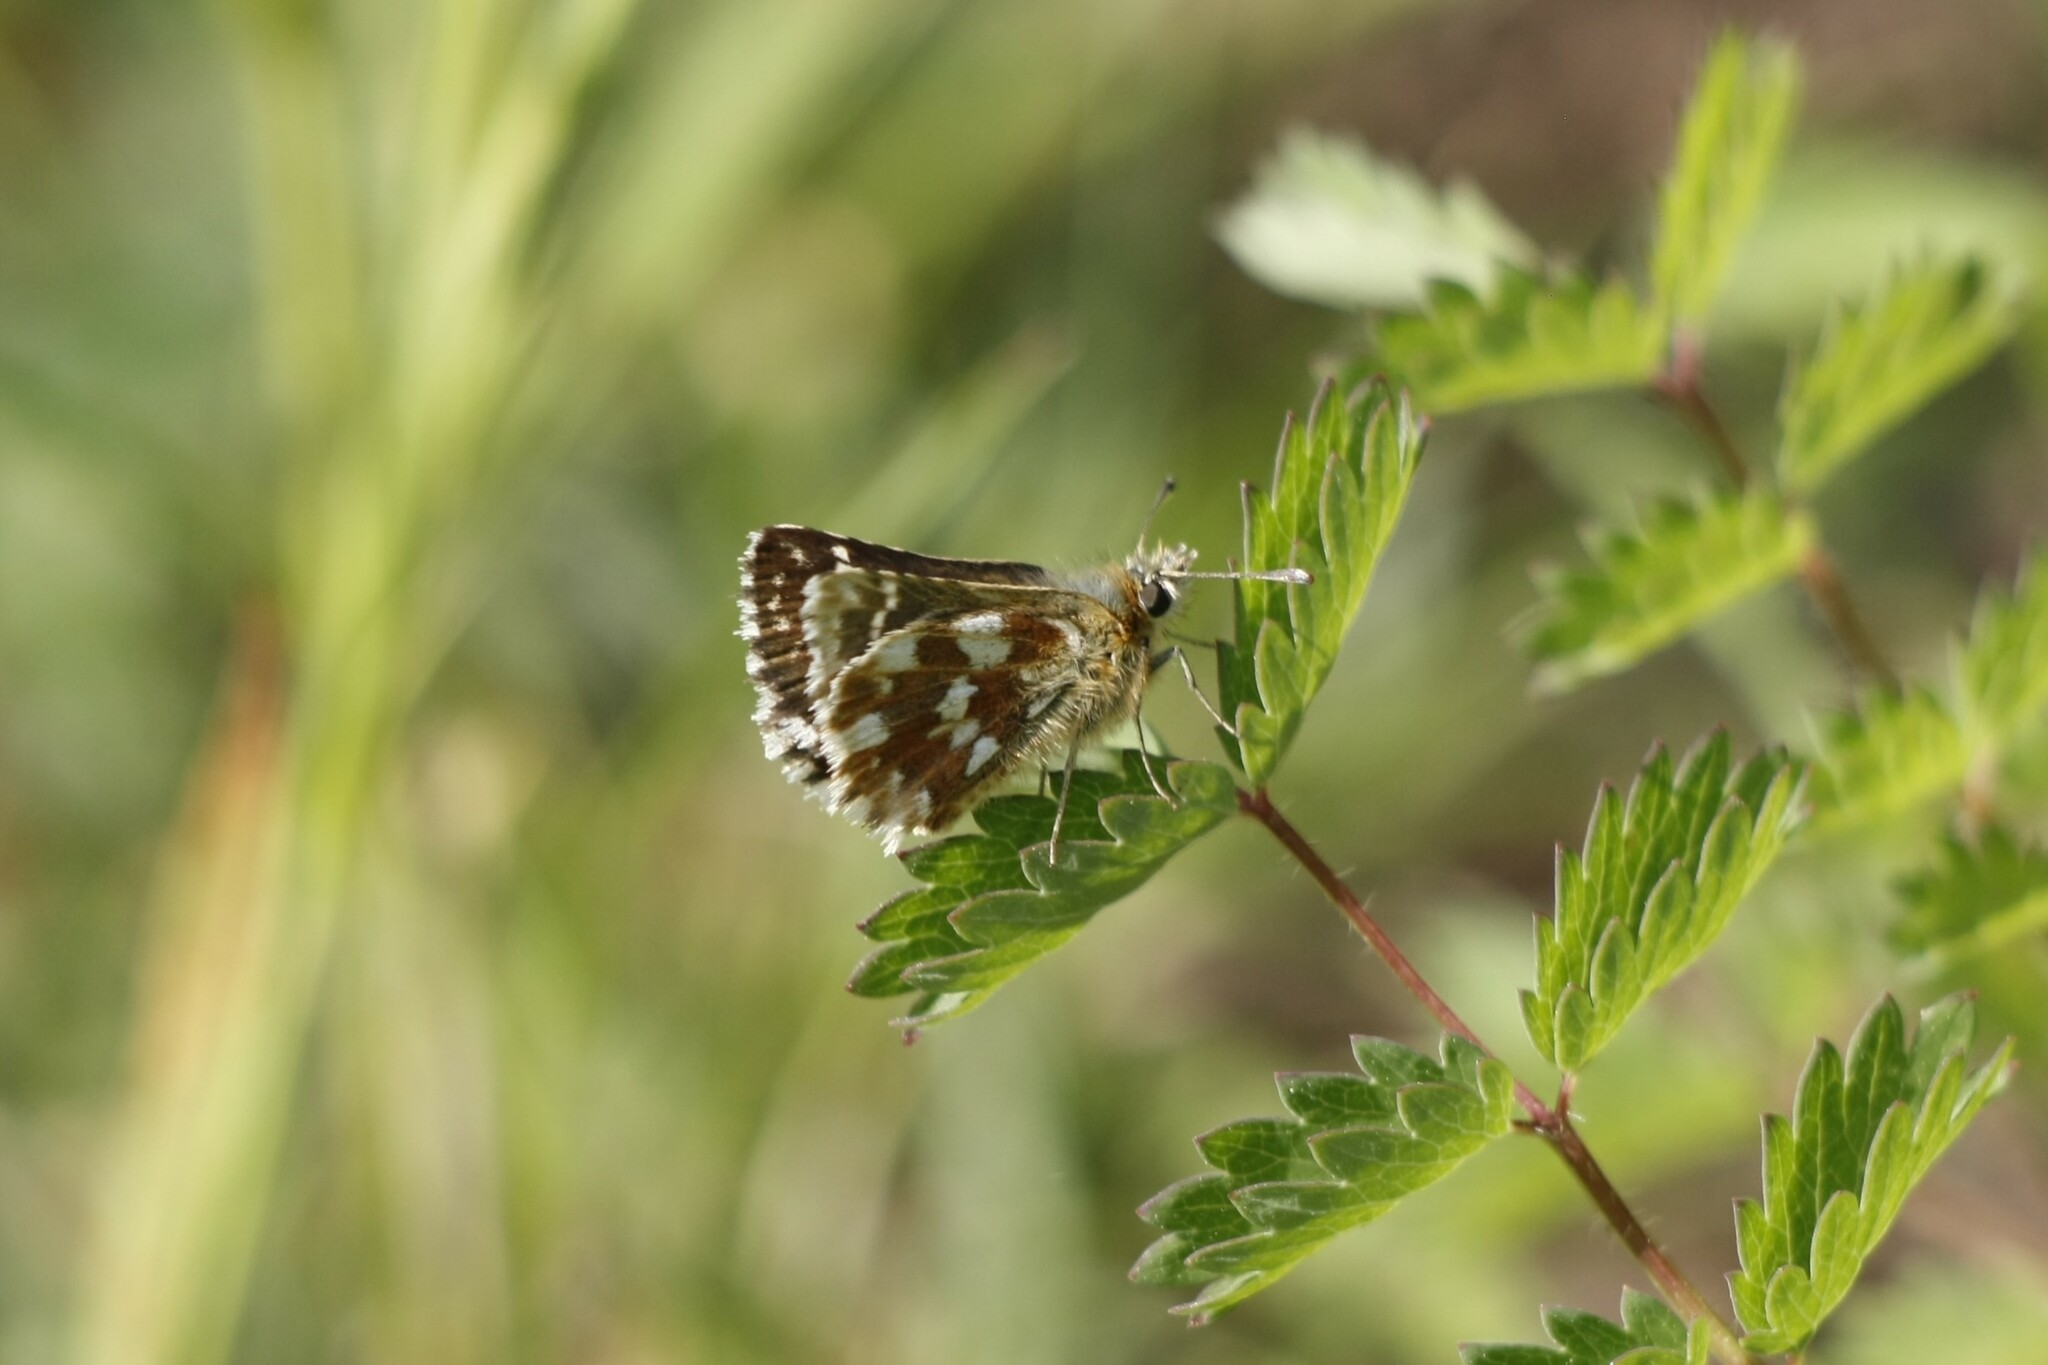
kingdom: Animalia
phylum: Arthropoda
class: Insecta
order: Lepidoptera
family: Hesperiidae
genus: Spialia
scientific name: Spialia sertorius
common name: Red underwing skipper
